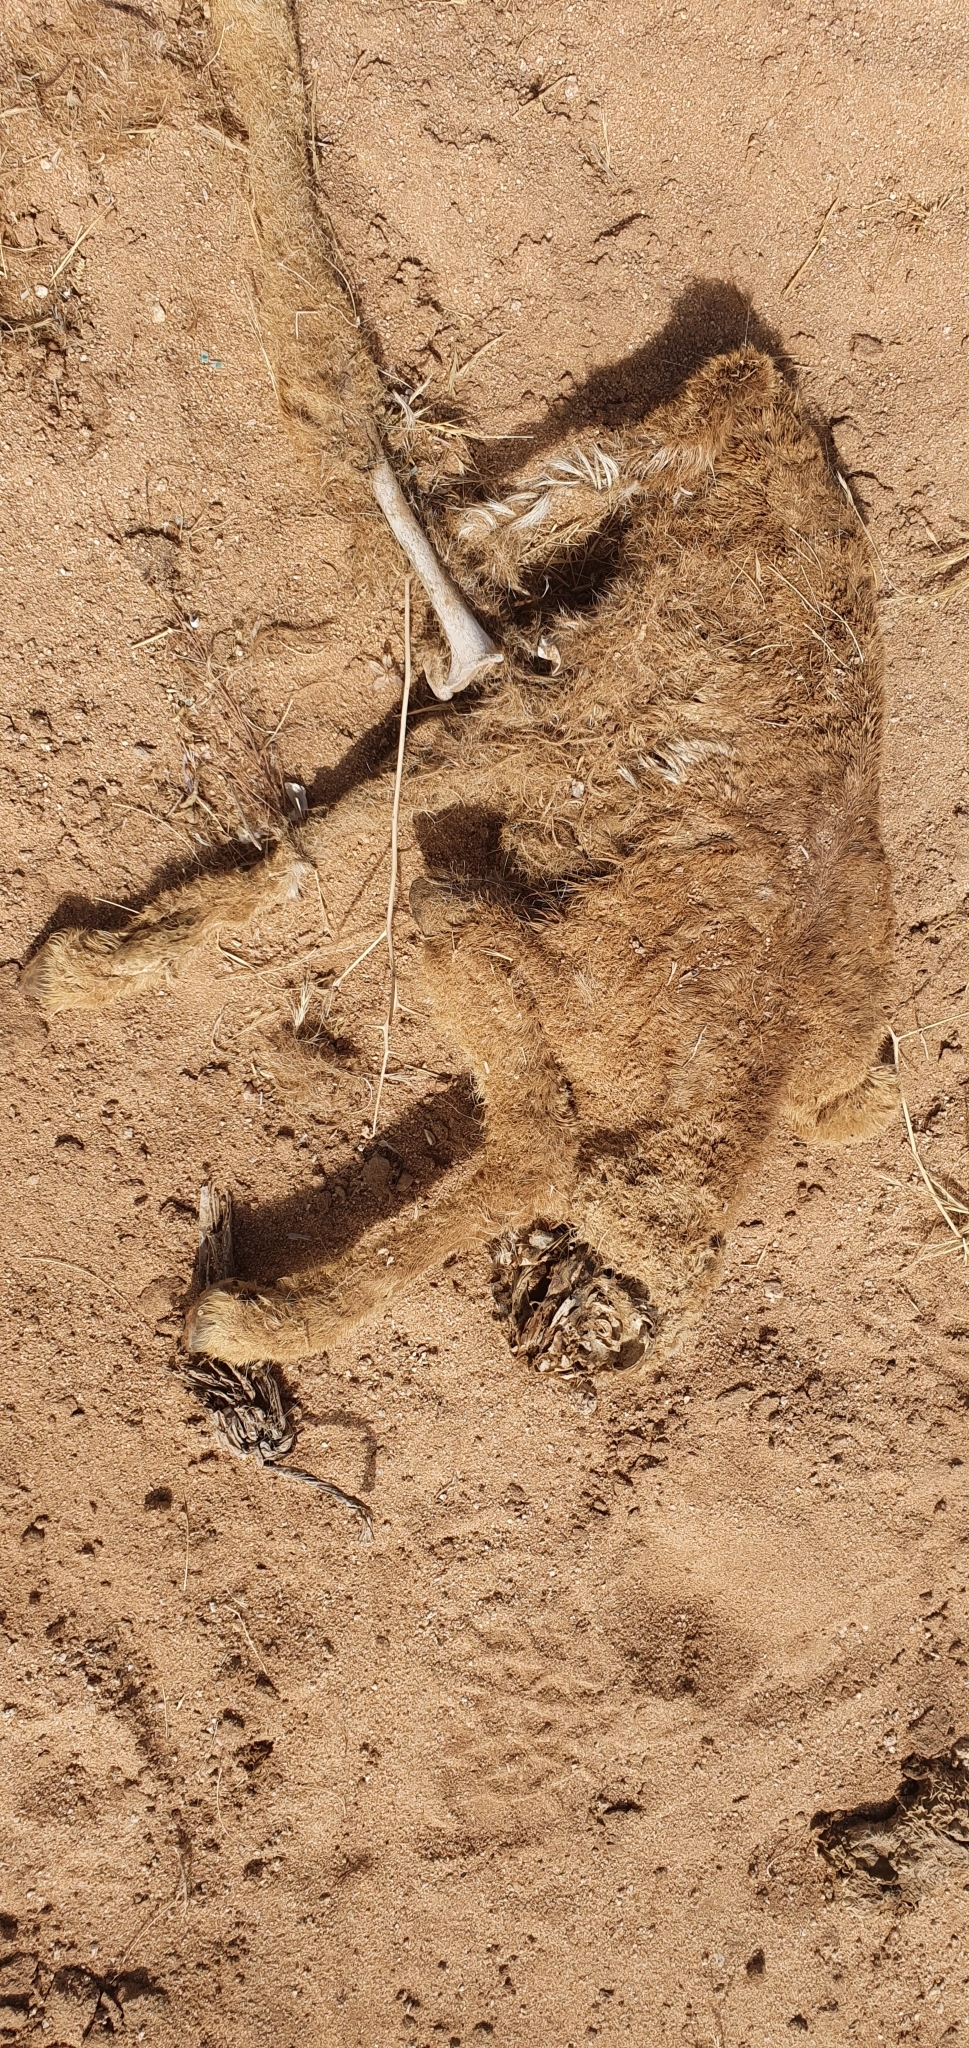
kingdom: Animalia
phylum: Chordata
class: Mammalia
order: Artiodactyla
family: Camelidae
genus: Camelus
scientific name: Camelus dromedarius
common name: One-humped camel
